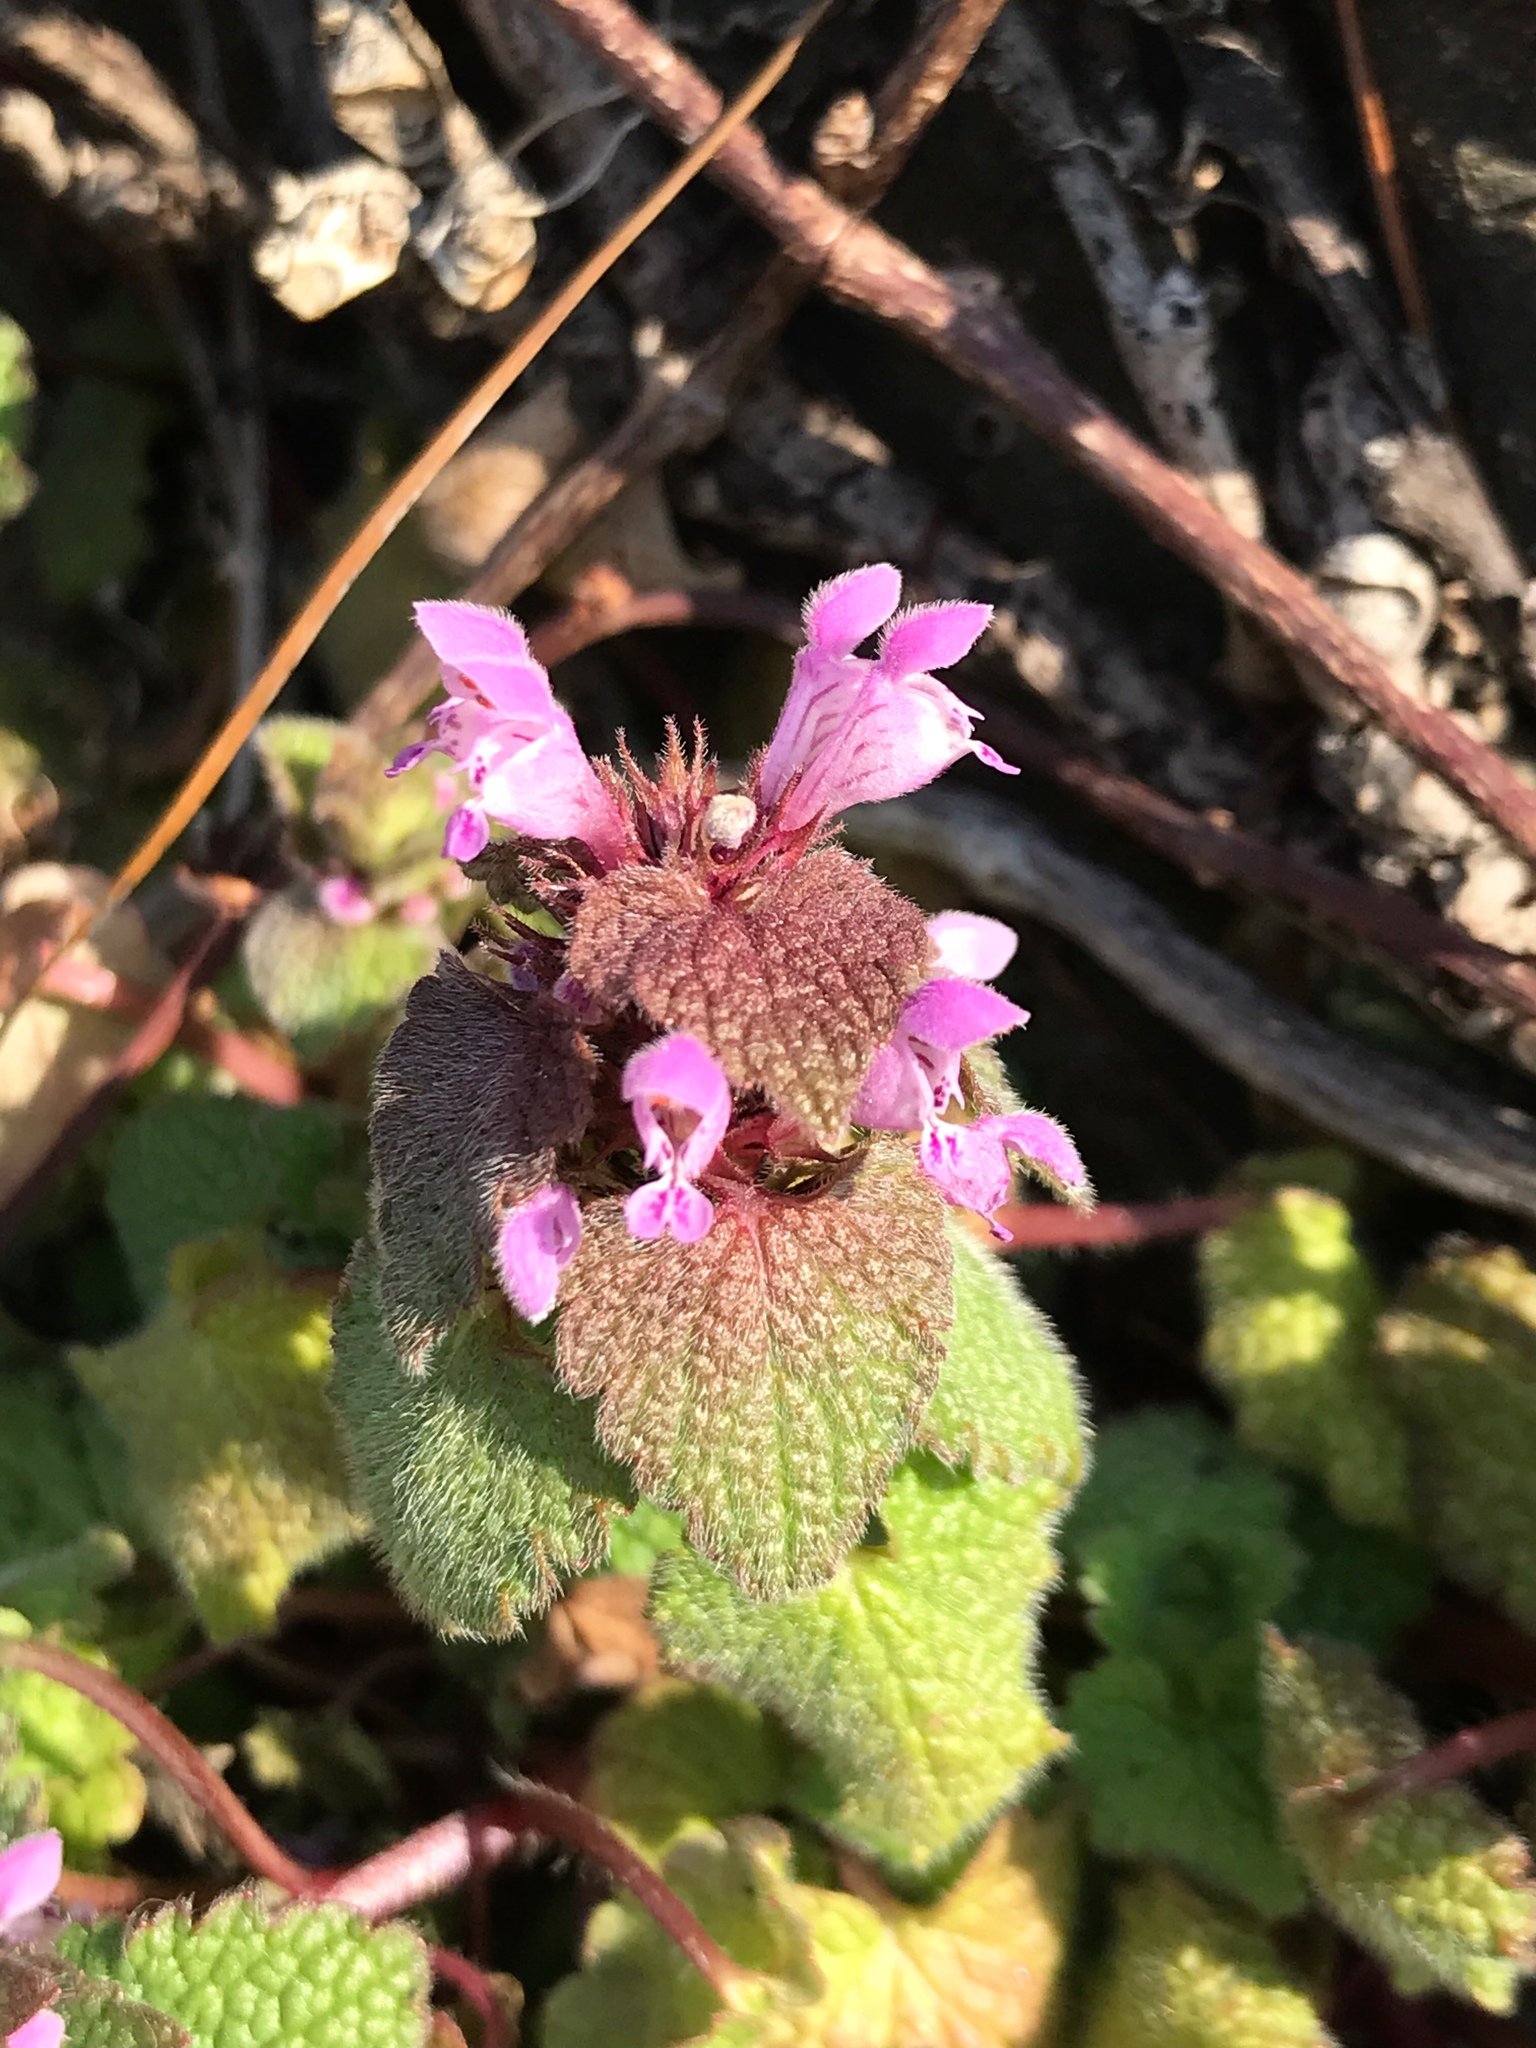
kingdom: Plantae
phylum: Tracheophyta
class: Magnoliopsida
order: Lamiales
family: Lamiaceae
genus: Lamium
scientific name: Lamium purpureum
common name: Red dead-nettle
